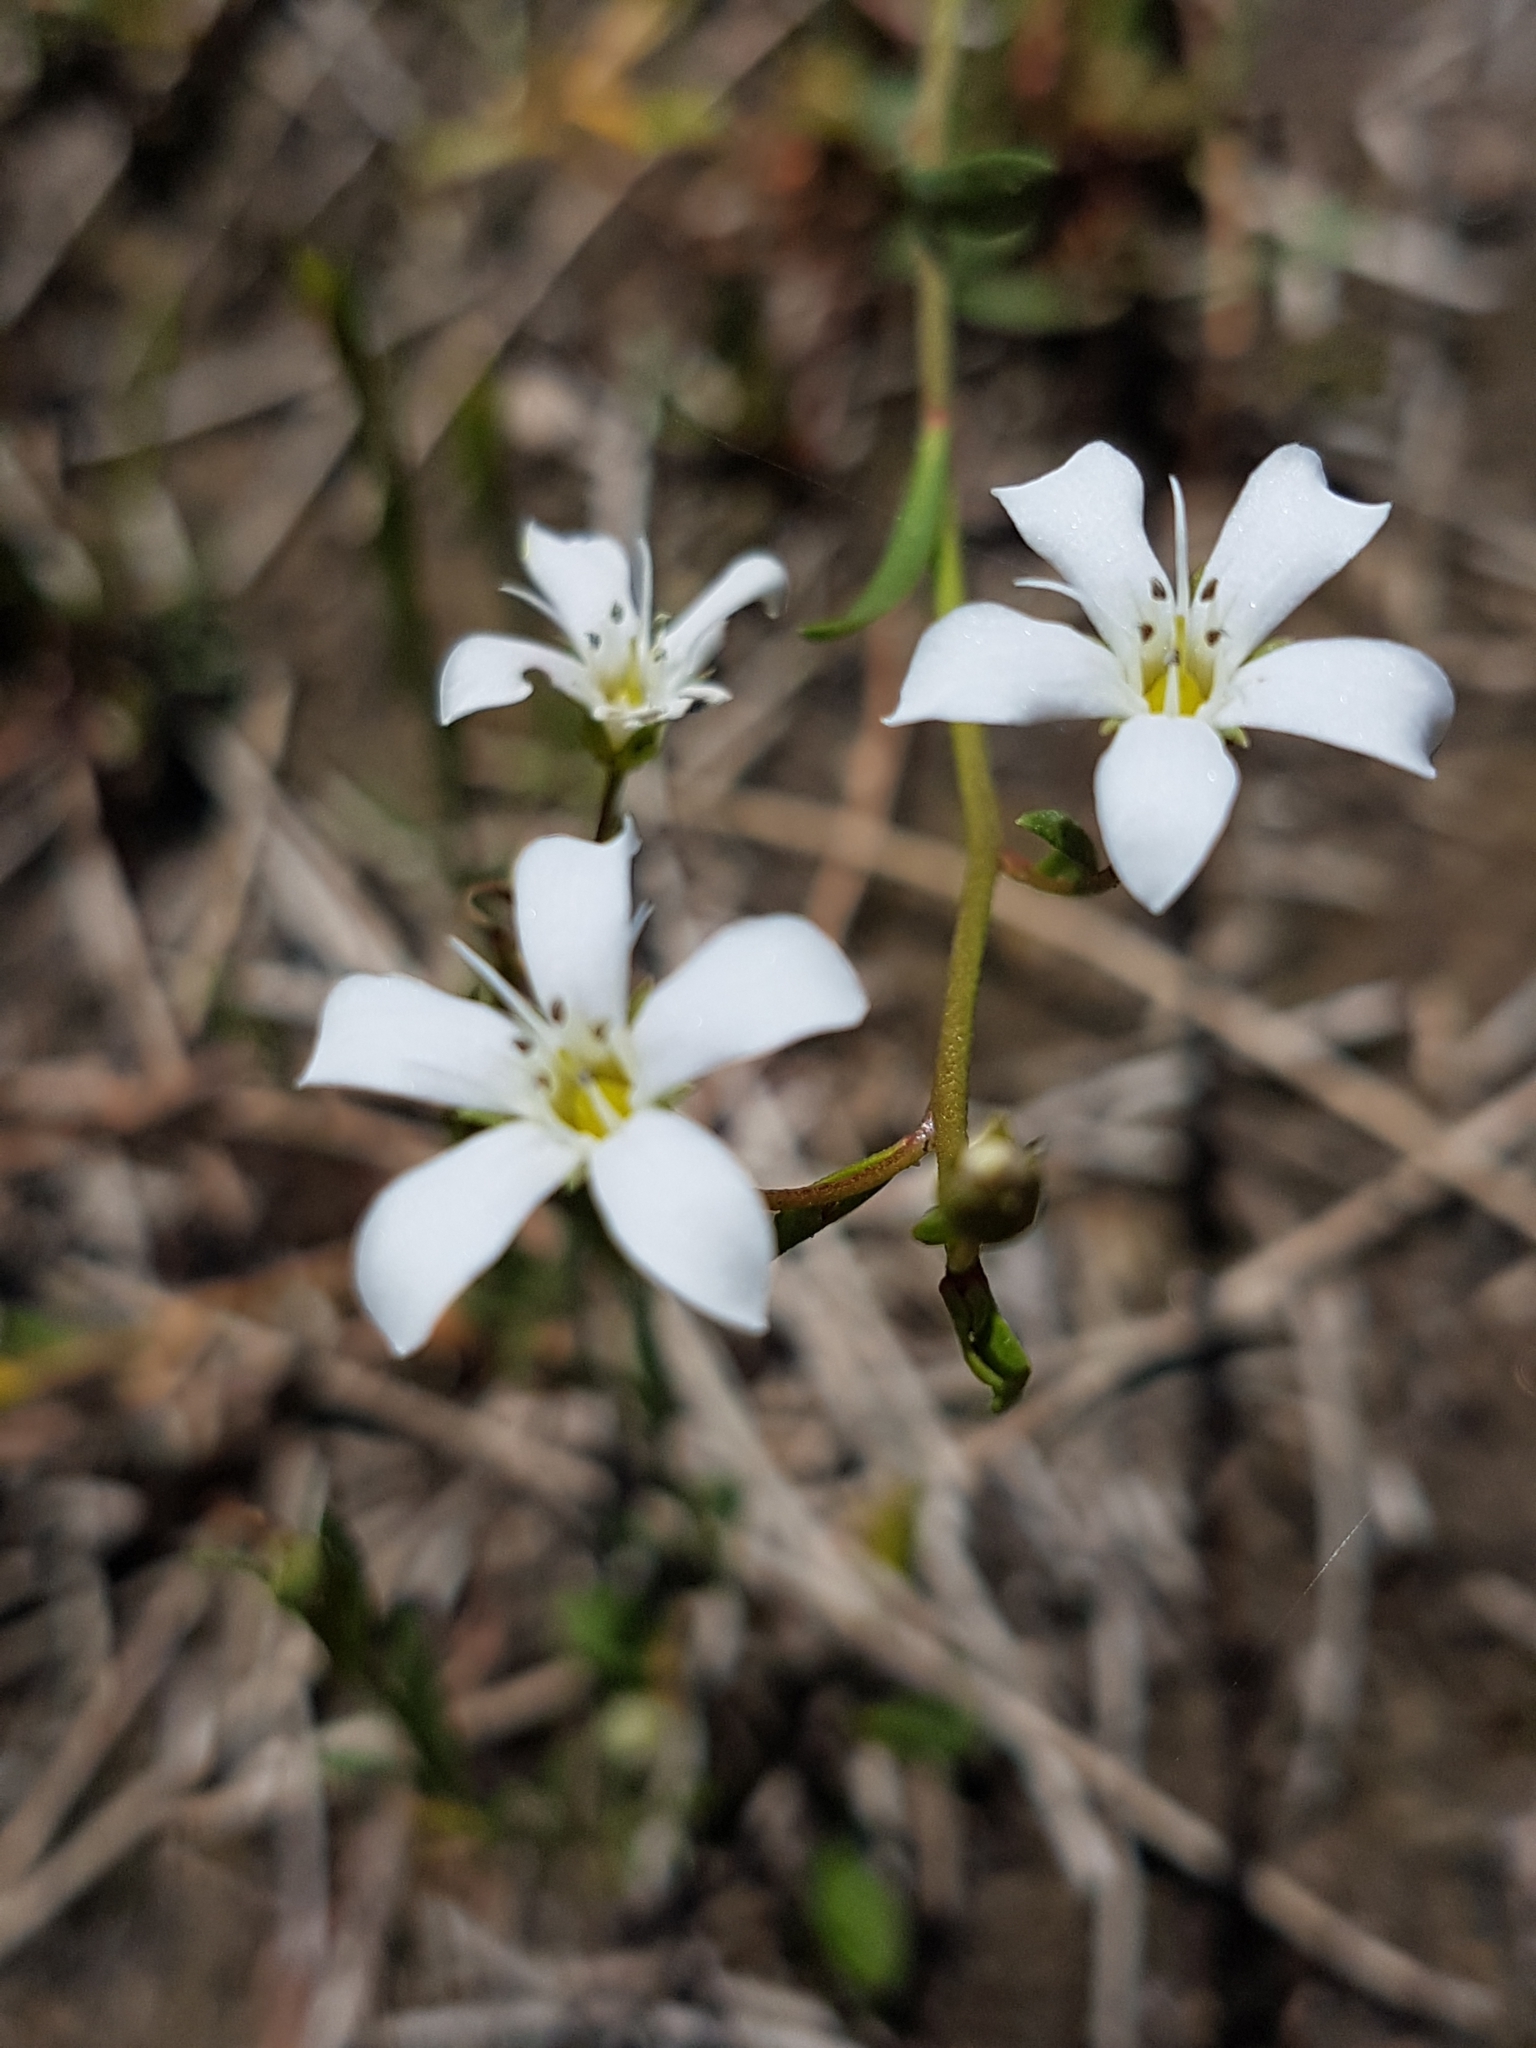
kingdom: Plantae
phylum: Tracheophyta
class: Magnoliopsida
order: Ericales
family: Primulaceae
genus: Samolus
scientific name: Samolus repens
